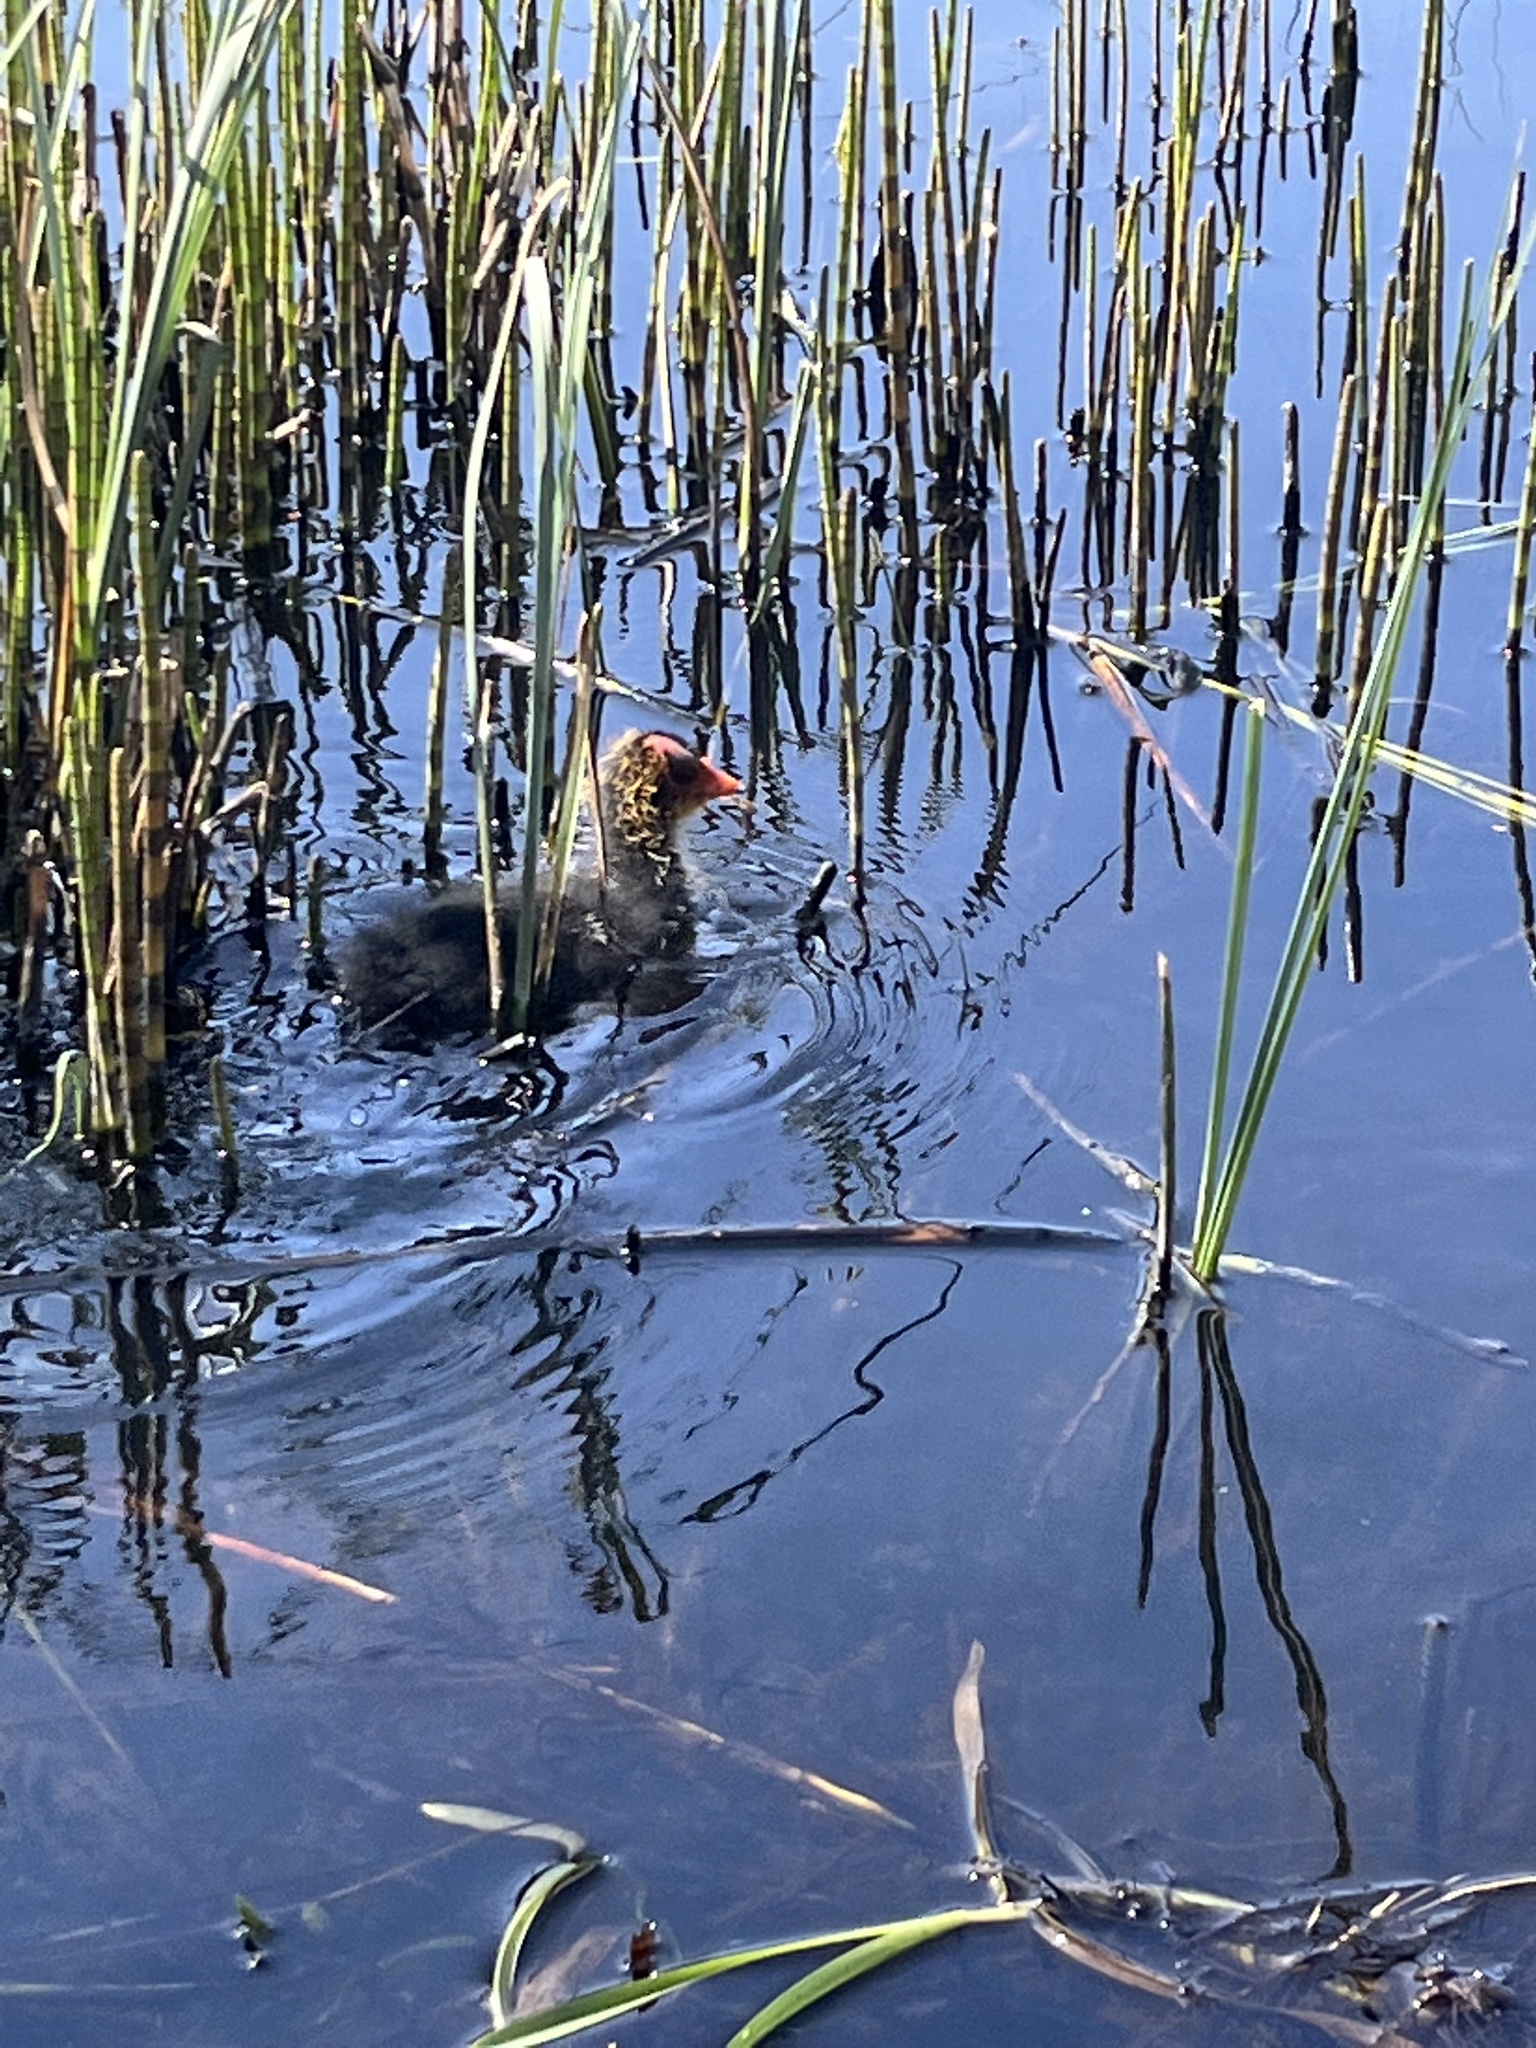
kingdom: Animalia
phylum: Chordata
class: Aves
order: Gruiformes
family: Rallidae
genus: Fulica
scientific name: Fulica atra
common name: Eurasian coot
